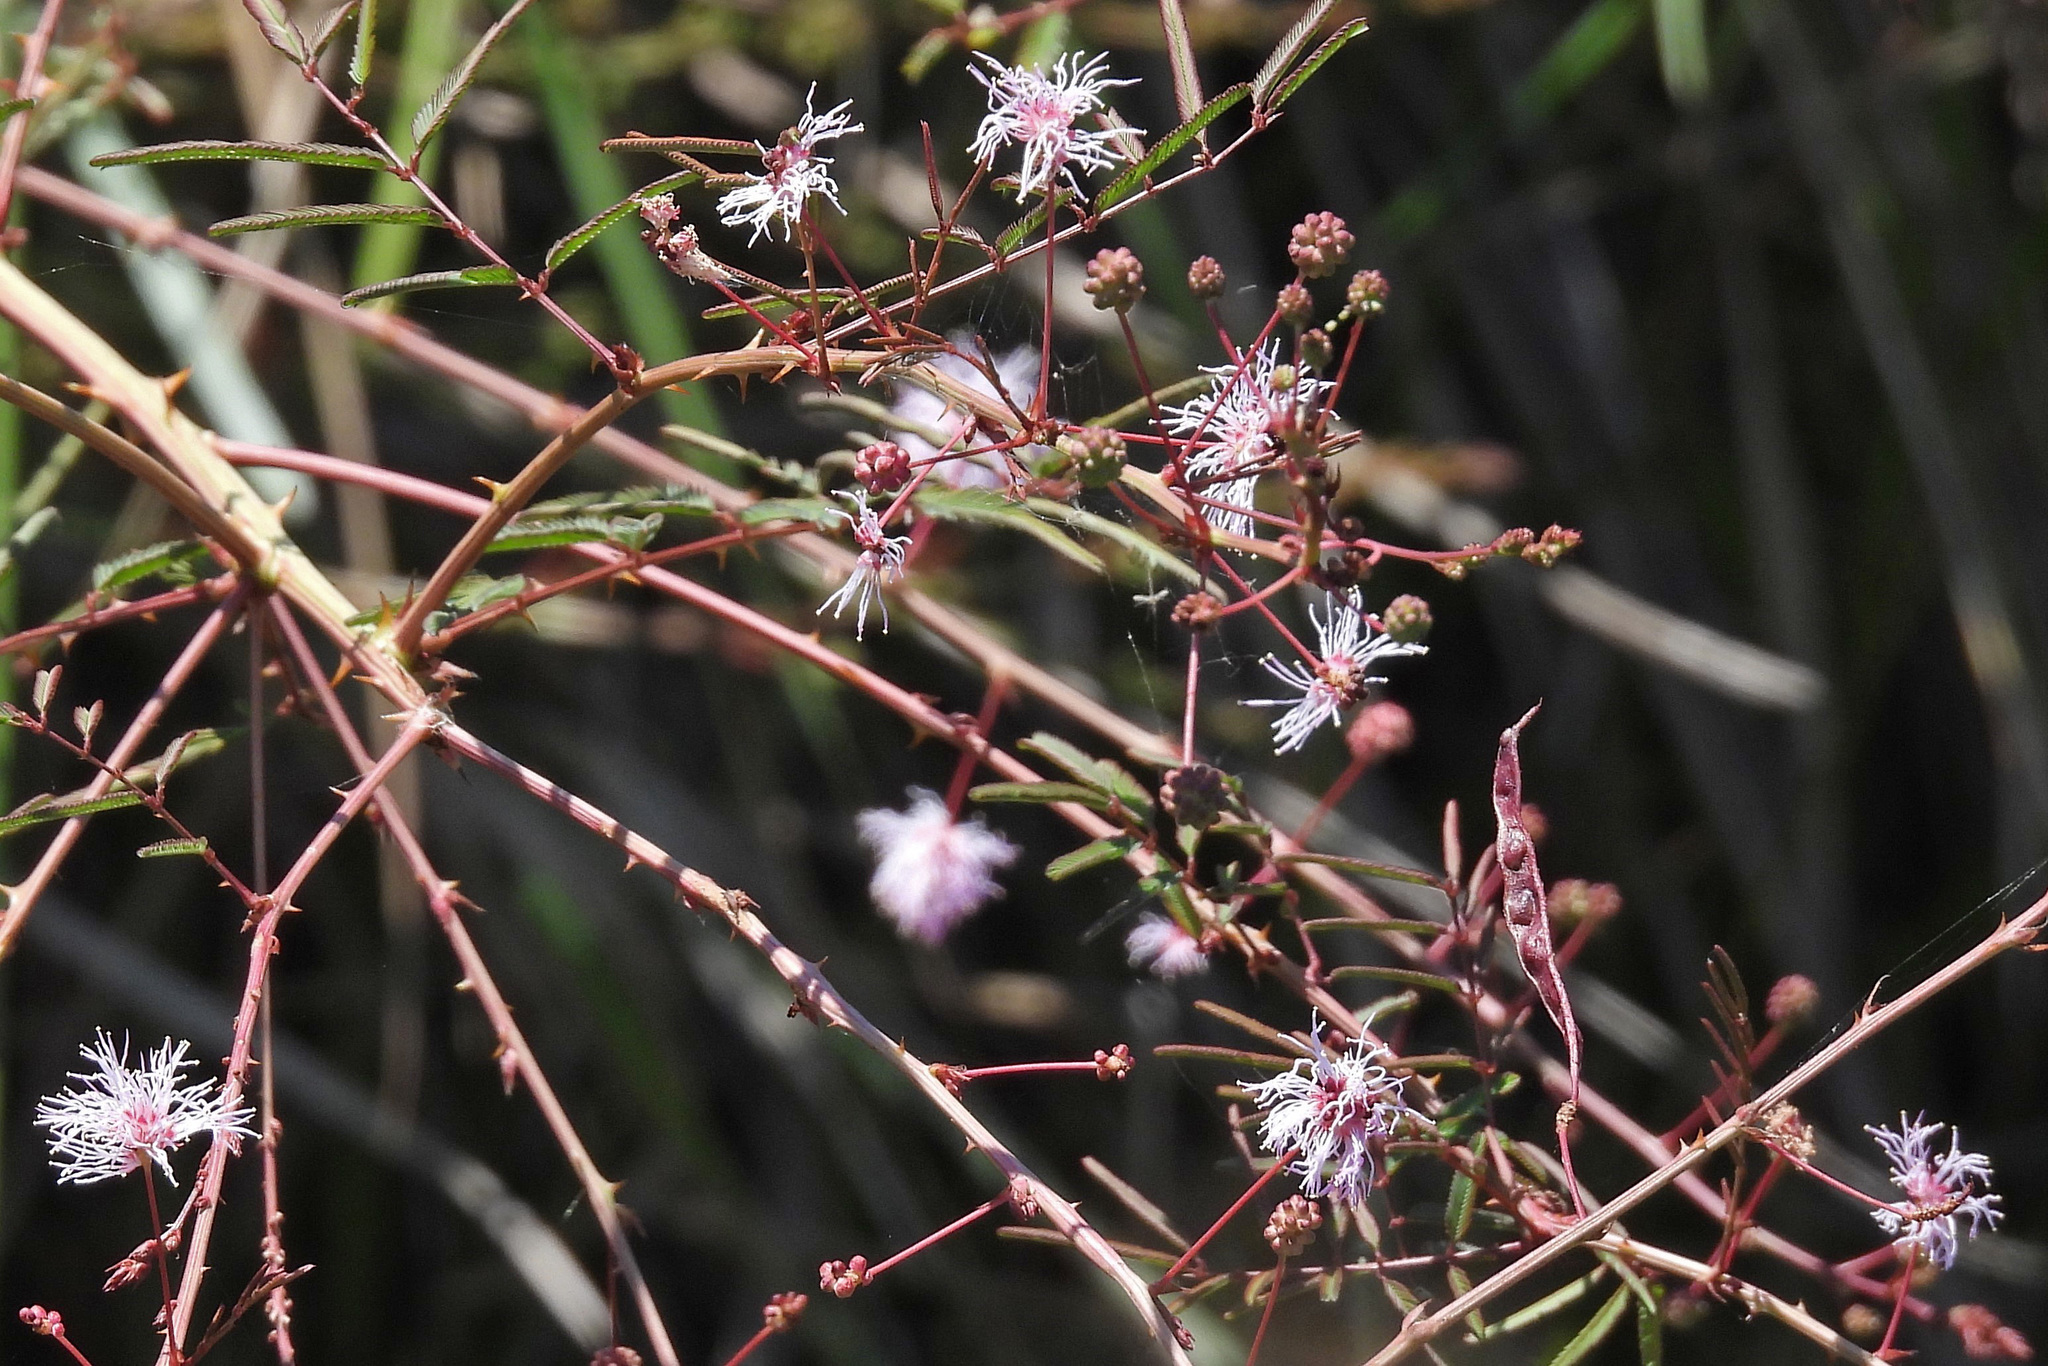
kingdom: Plantae
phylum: Tracheophyta
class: Magnoliopsida
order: Fabales
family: Fabaceae
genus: Mimosa
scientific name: Mimosa somnians
